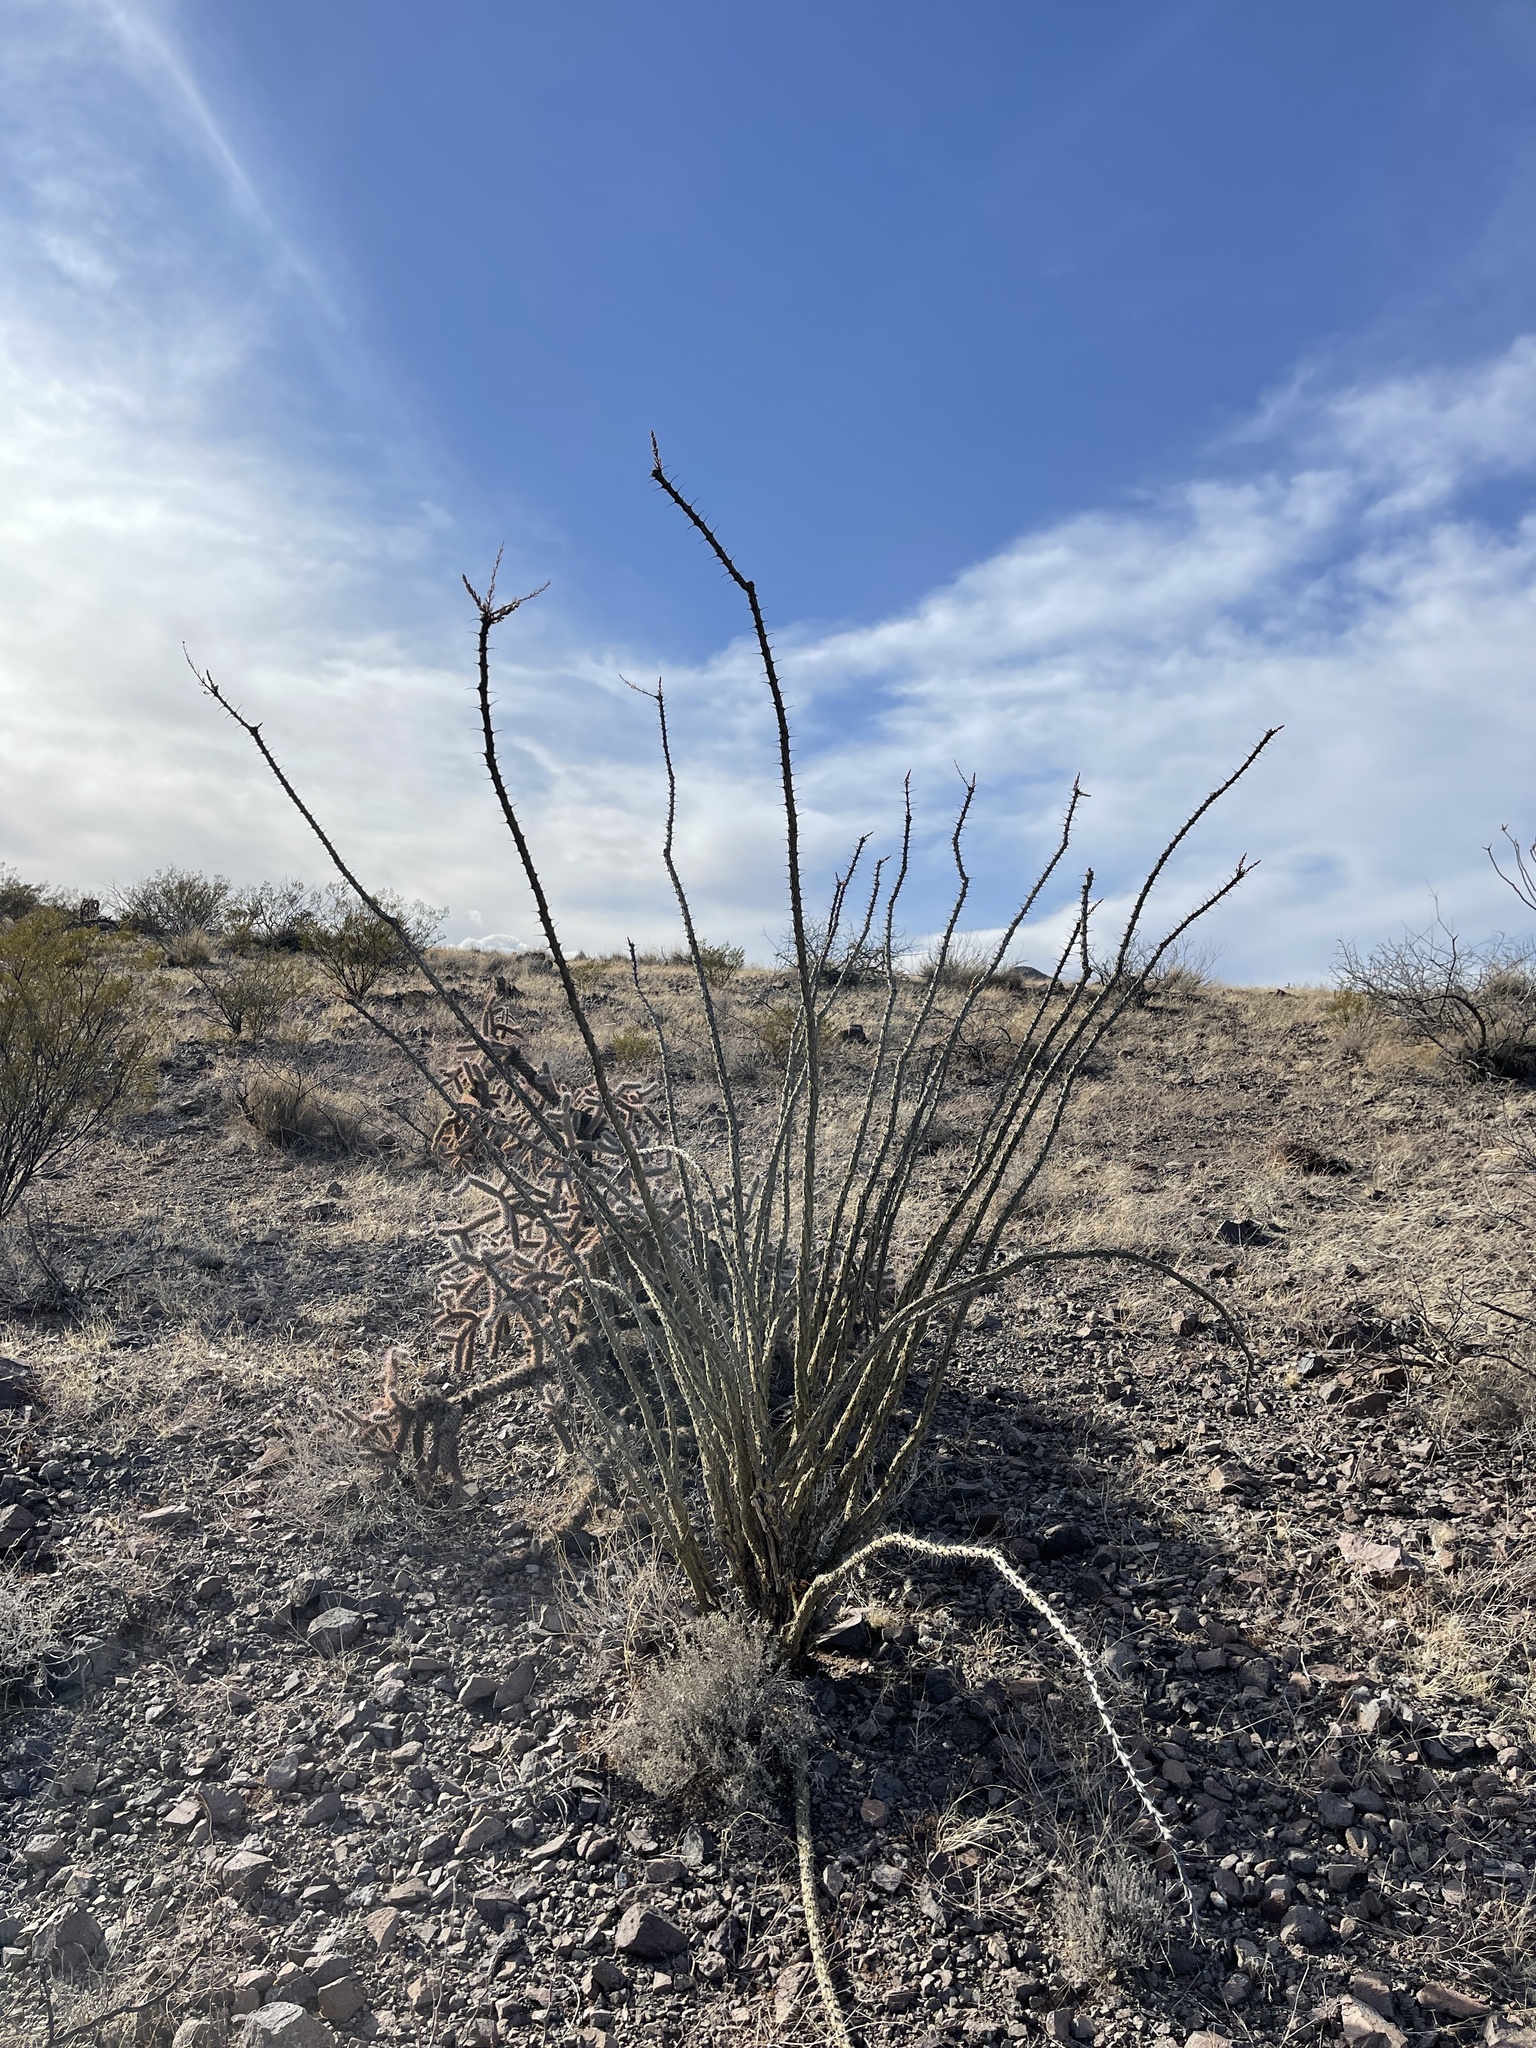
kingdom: Plantae
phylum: Tracheophyta
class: Magnoliopsida
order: Ericales
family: Fouquieriaceae
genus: Fouquieria
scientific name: Fouquieria splendens
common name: Vine-cactus
